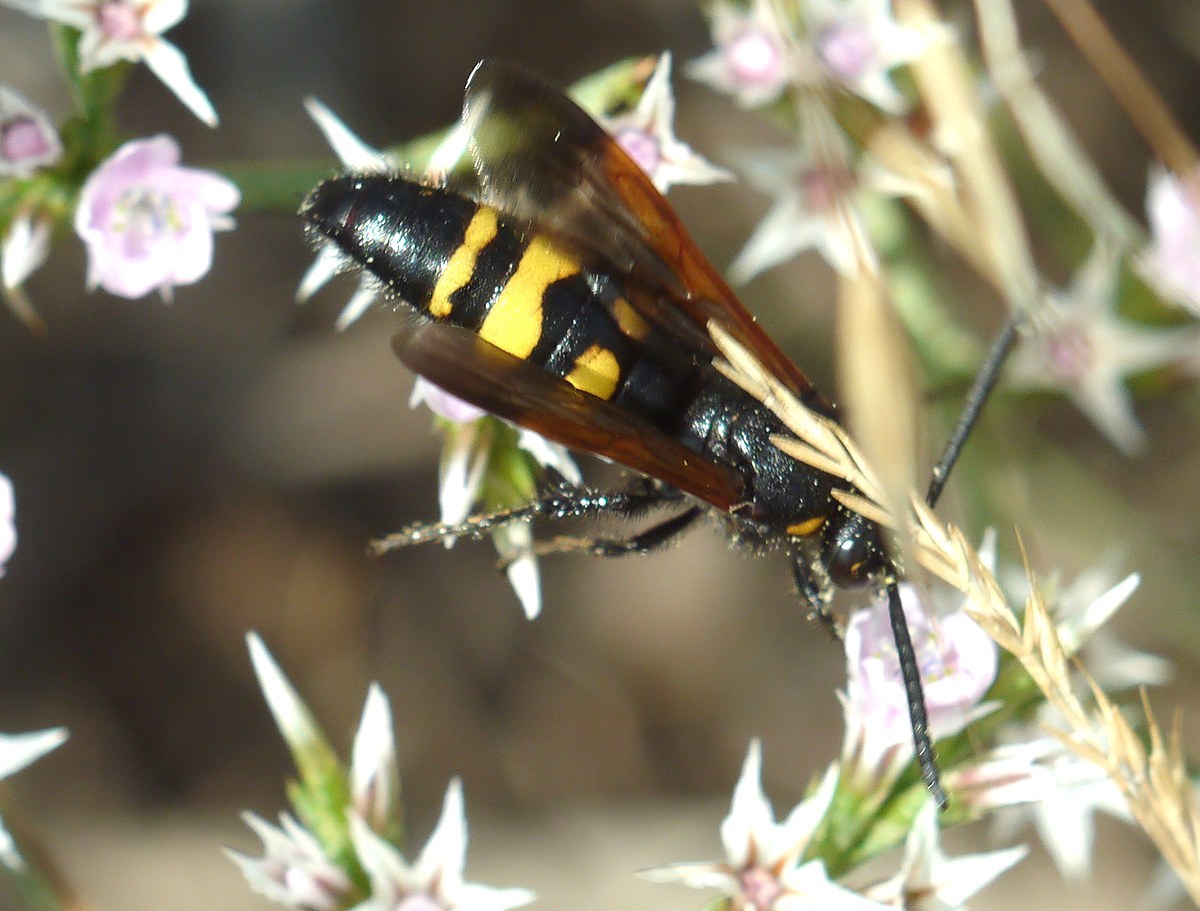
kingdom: Animalia
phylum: Arthropoda
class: Insecta
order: Hymenoptera
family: Scoliidae
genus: Scolia
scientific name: Scolia fuciformis
